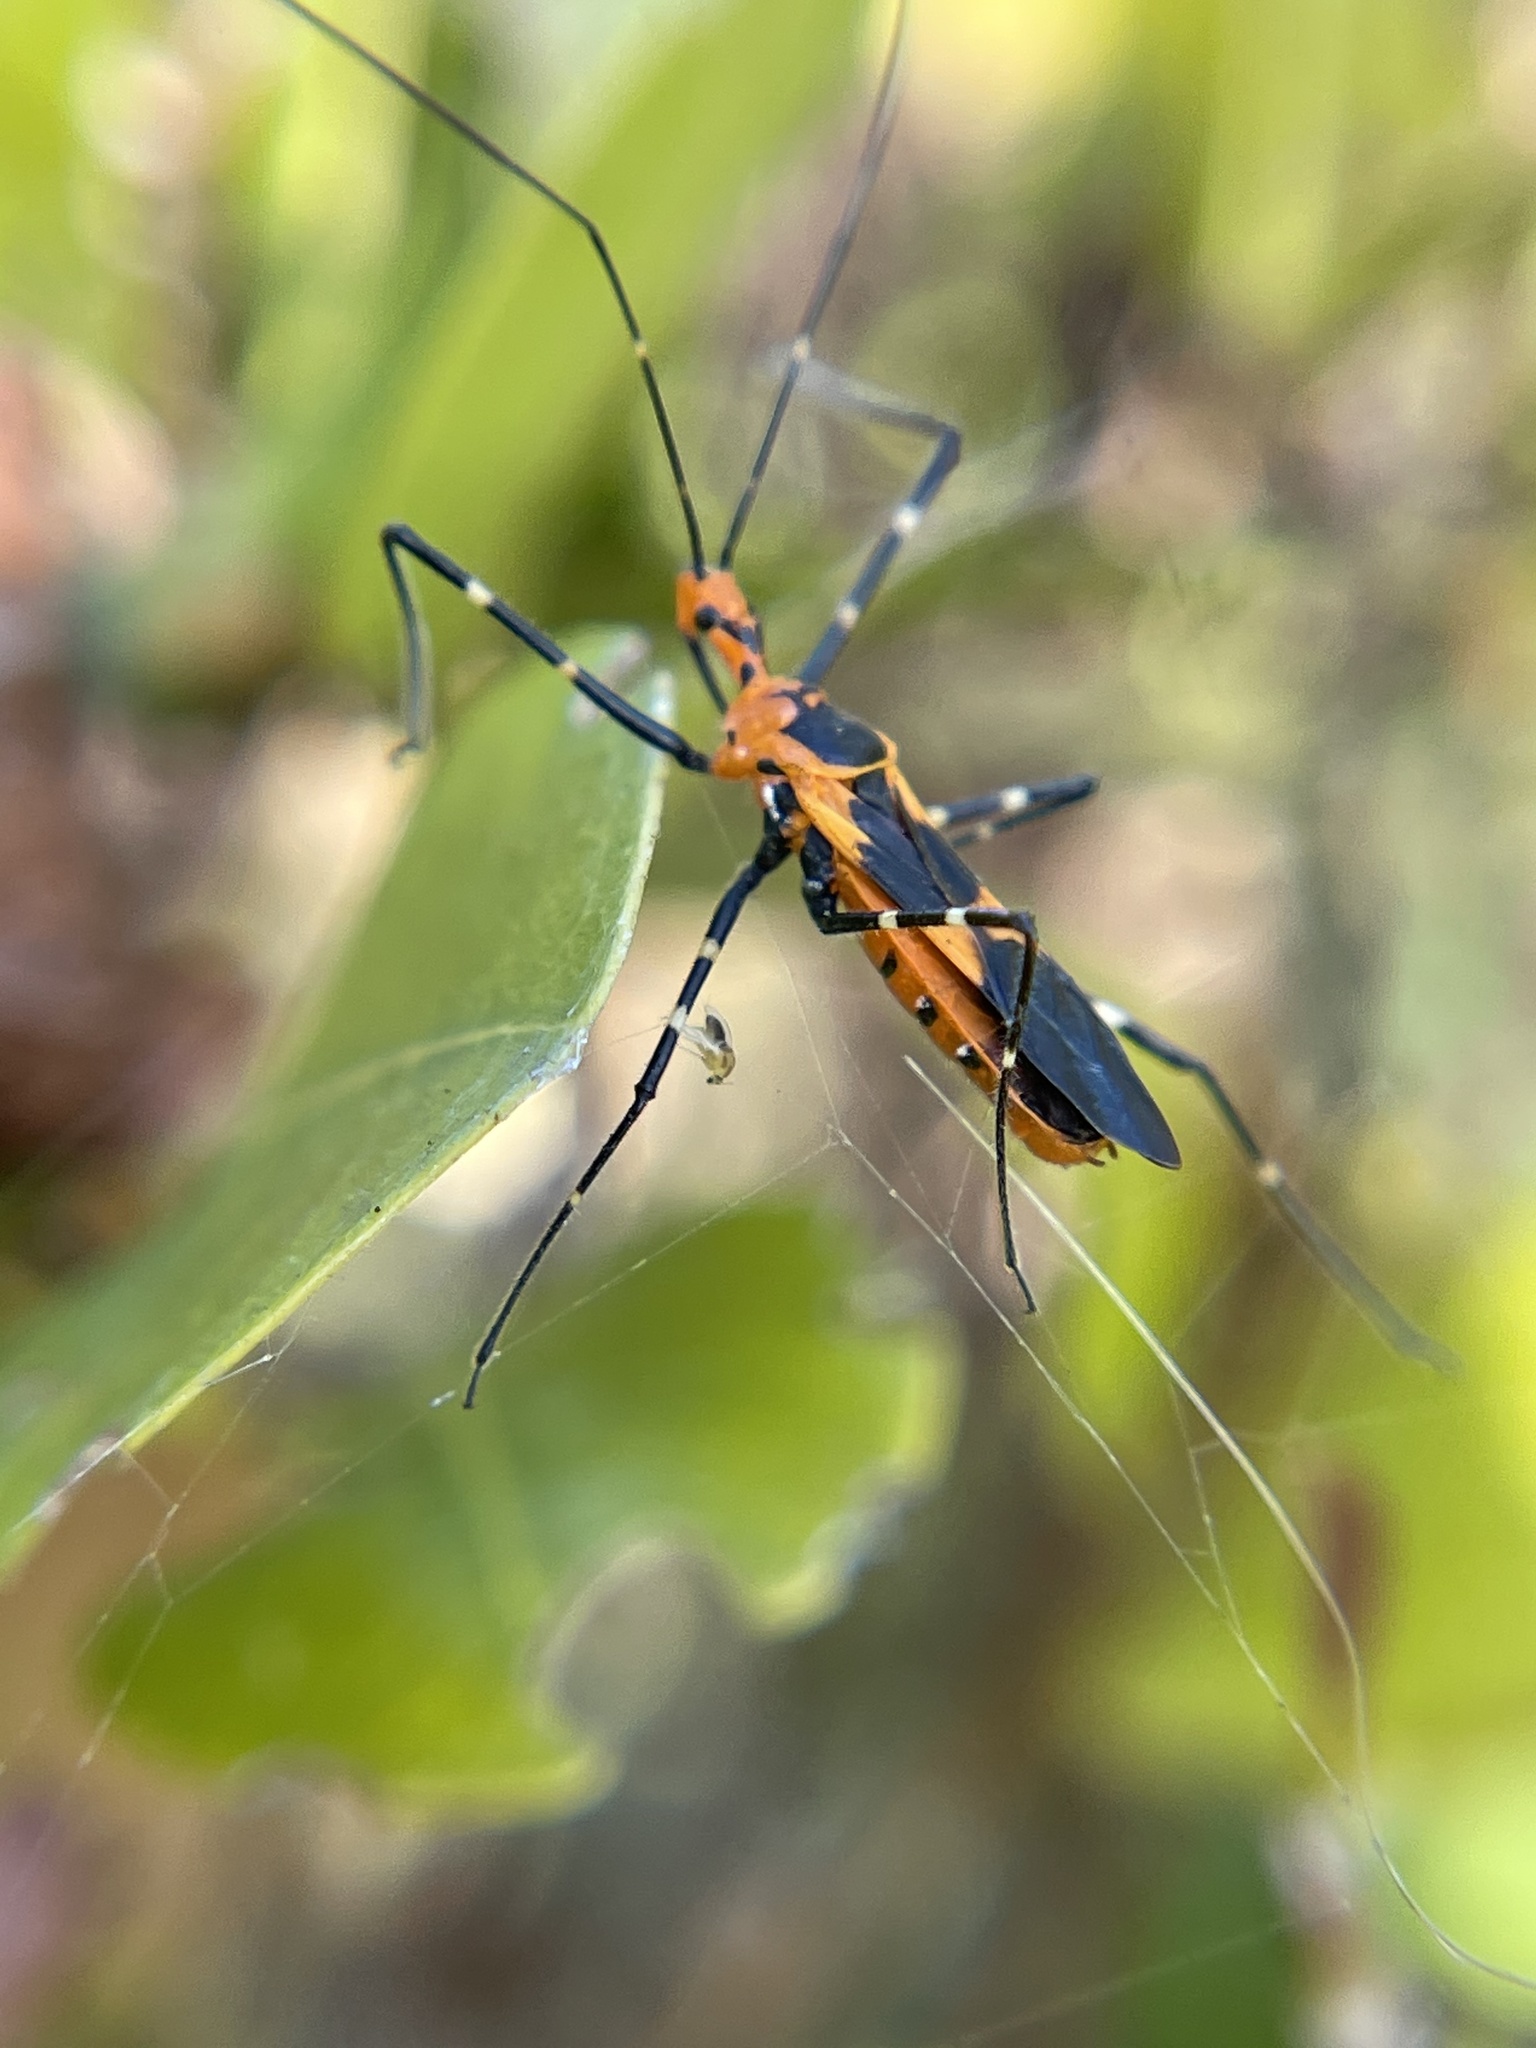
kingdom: Animalia
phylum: Arthropoda
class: Insecta
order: Hemiptera
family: Reduviidae
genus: Zelus
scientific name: Zelus longipes
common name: Milkweed assassin bug
